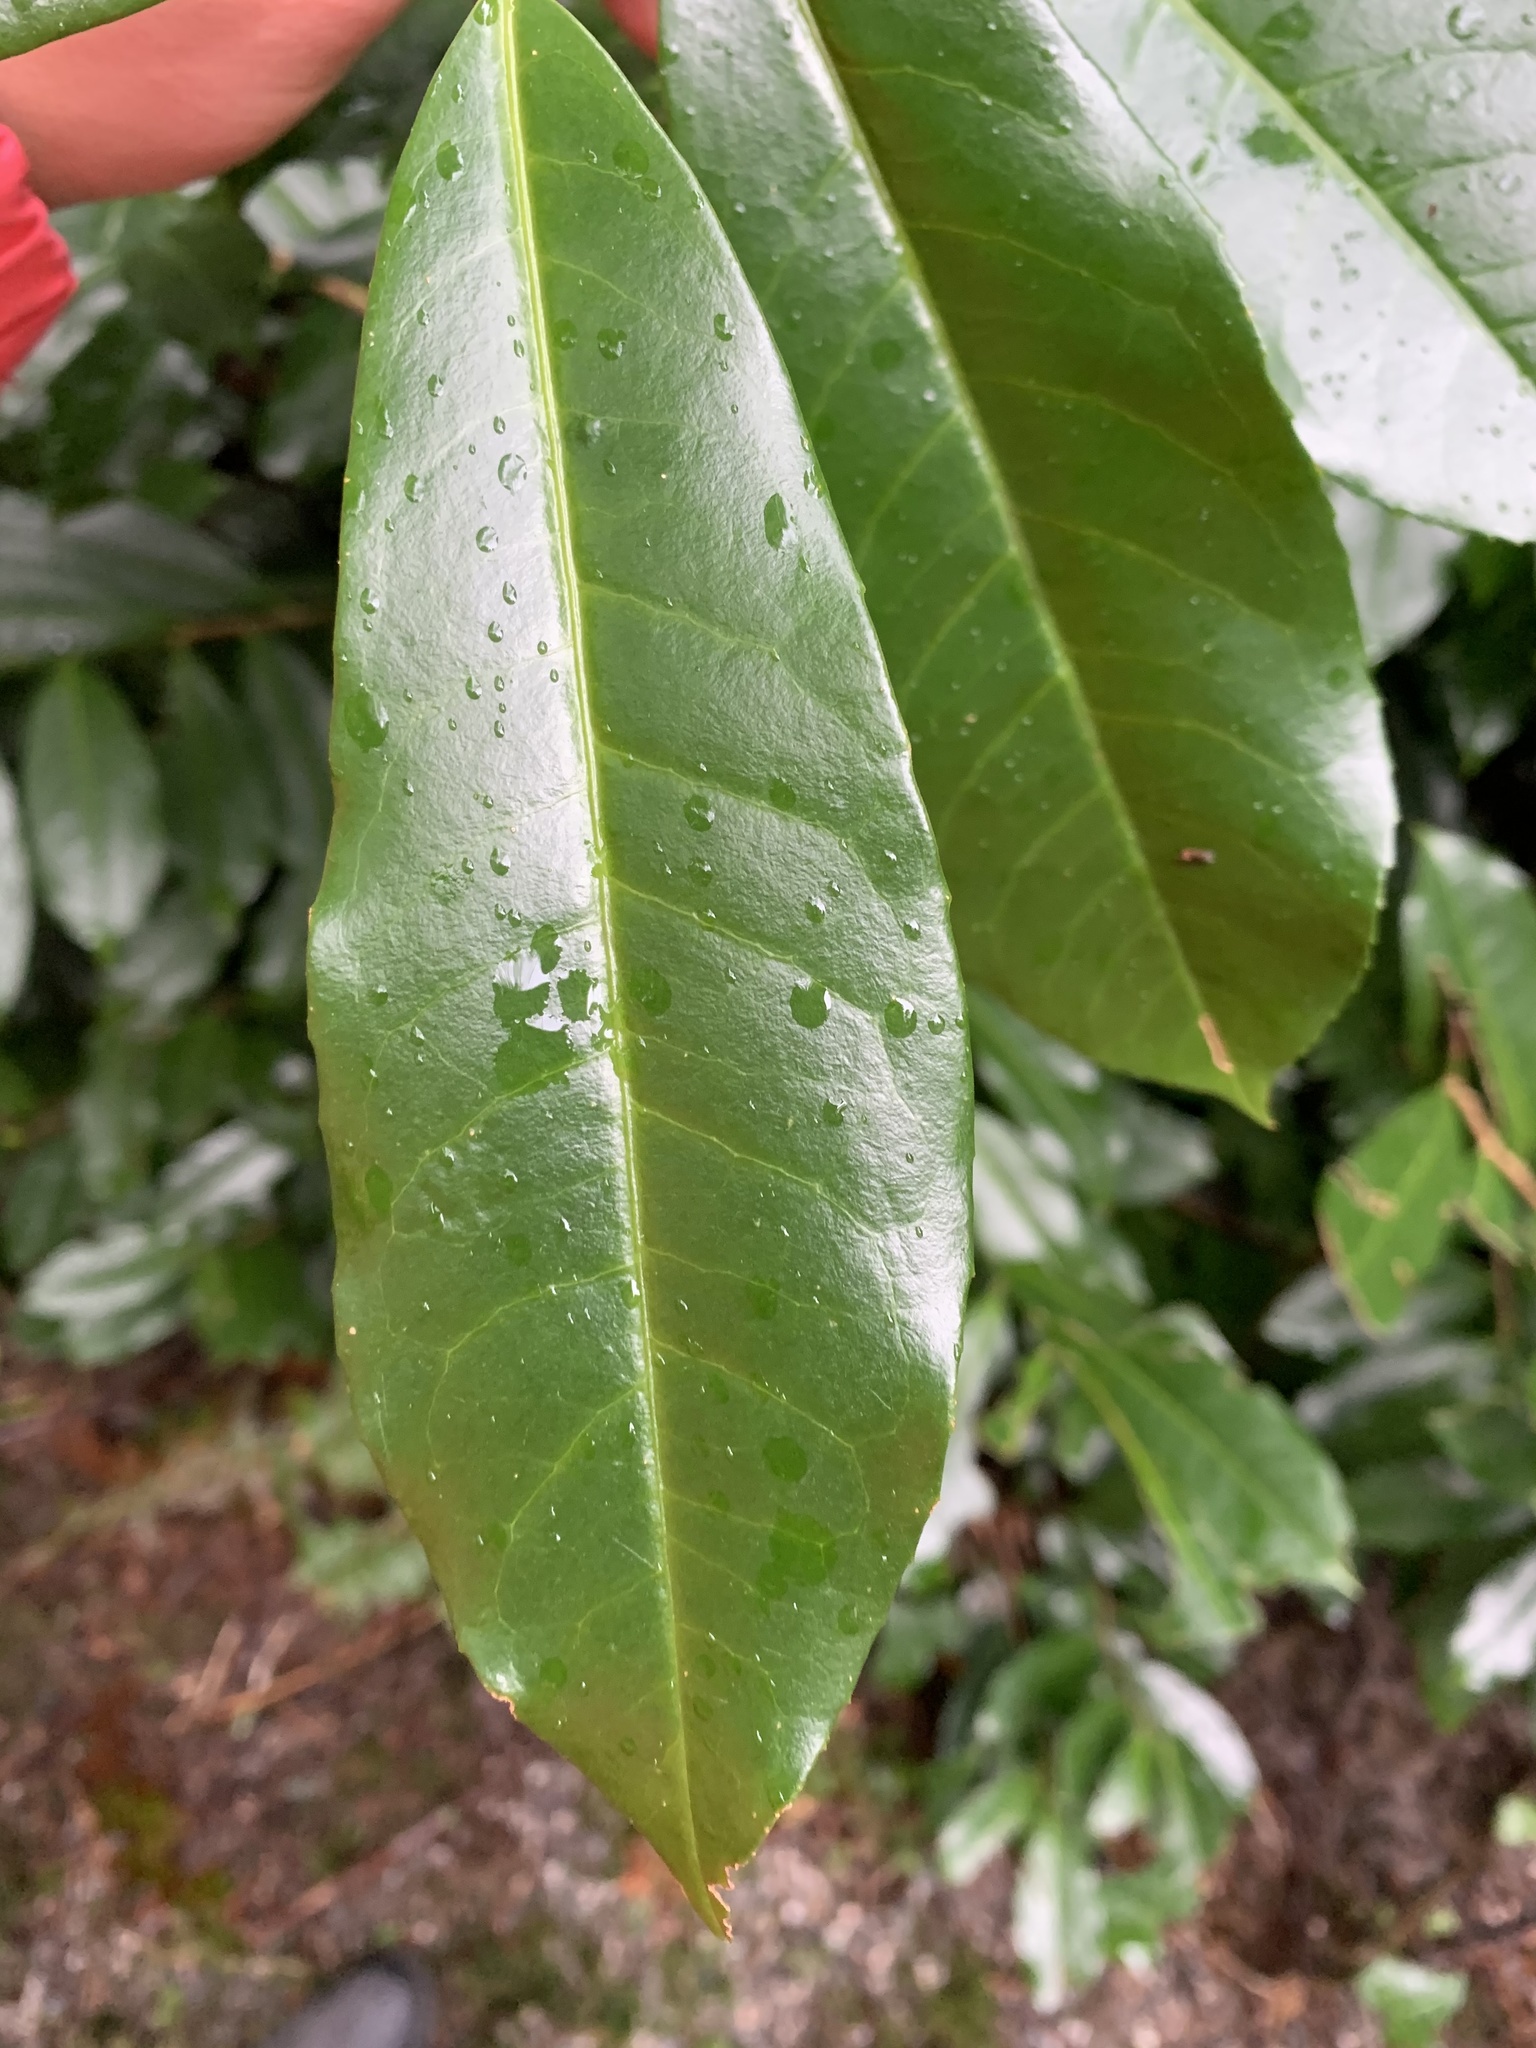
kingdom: Plantae
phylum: Tracheophyta
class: Magnoliopsida
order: Rosales
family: Rosaceae
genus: Prunus
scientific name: Prunus laurocerasus
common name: Cherry laurel
